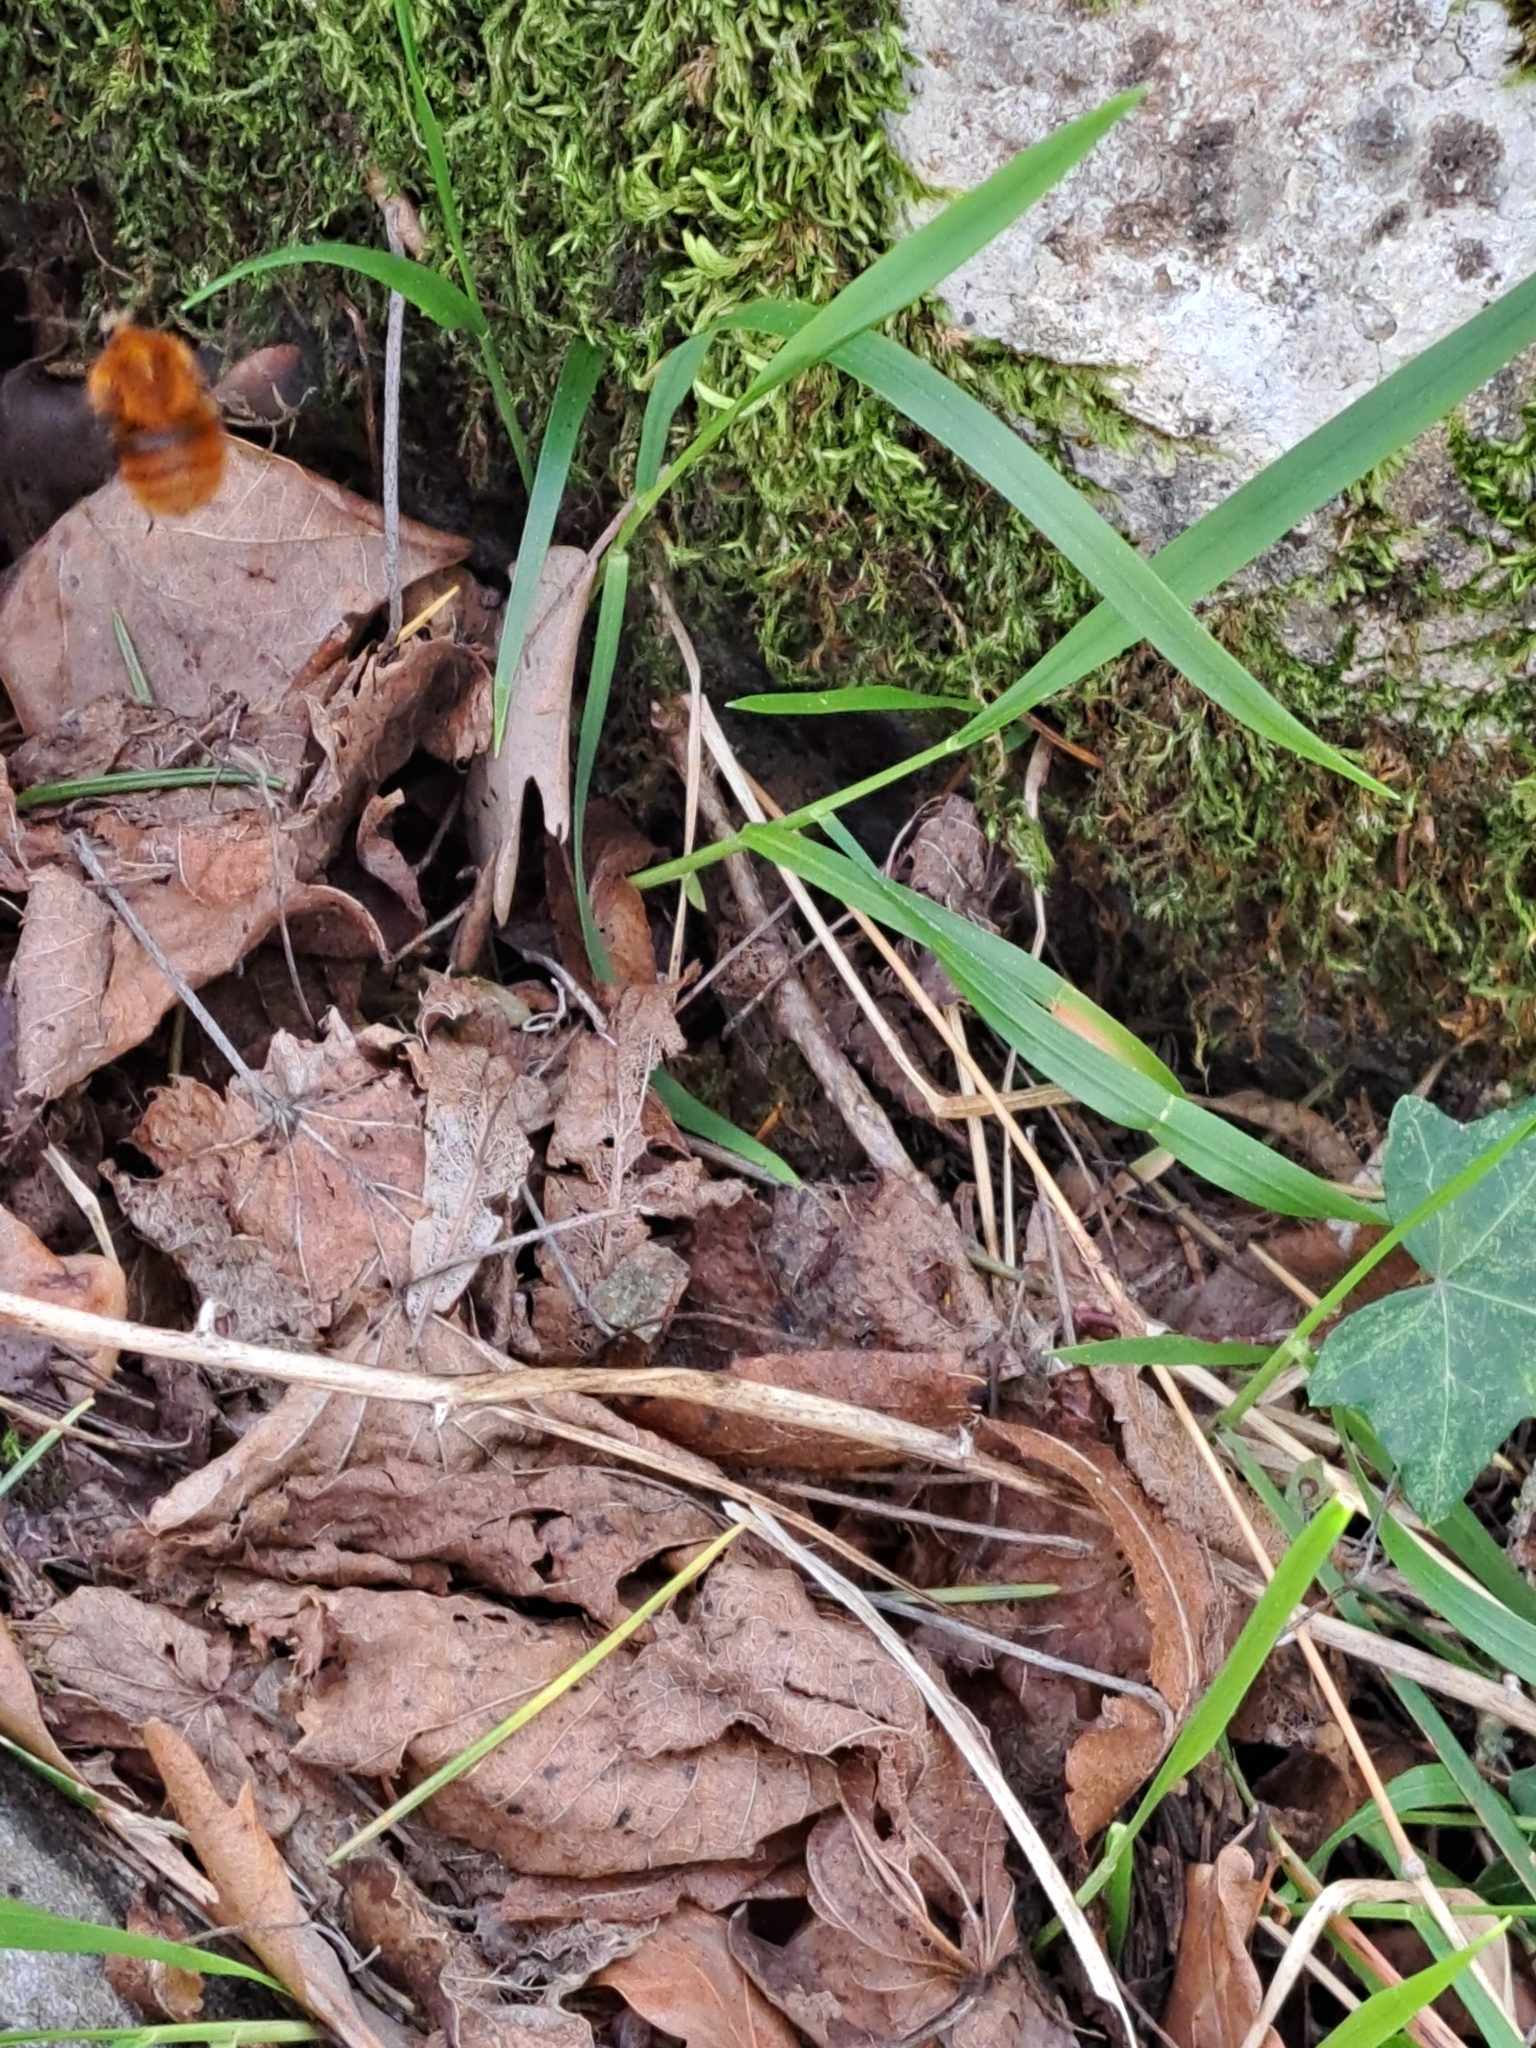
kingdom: Animalia
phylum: Arthropoda
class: Insecta
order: Hymenoptera
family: Apidae
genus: Bombus
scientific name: Bombus pascuorum
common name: Common carder bee
